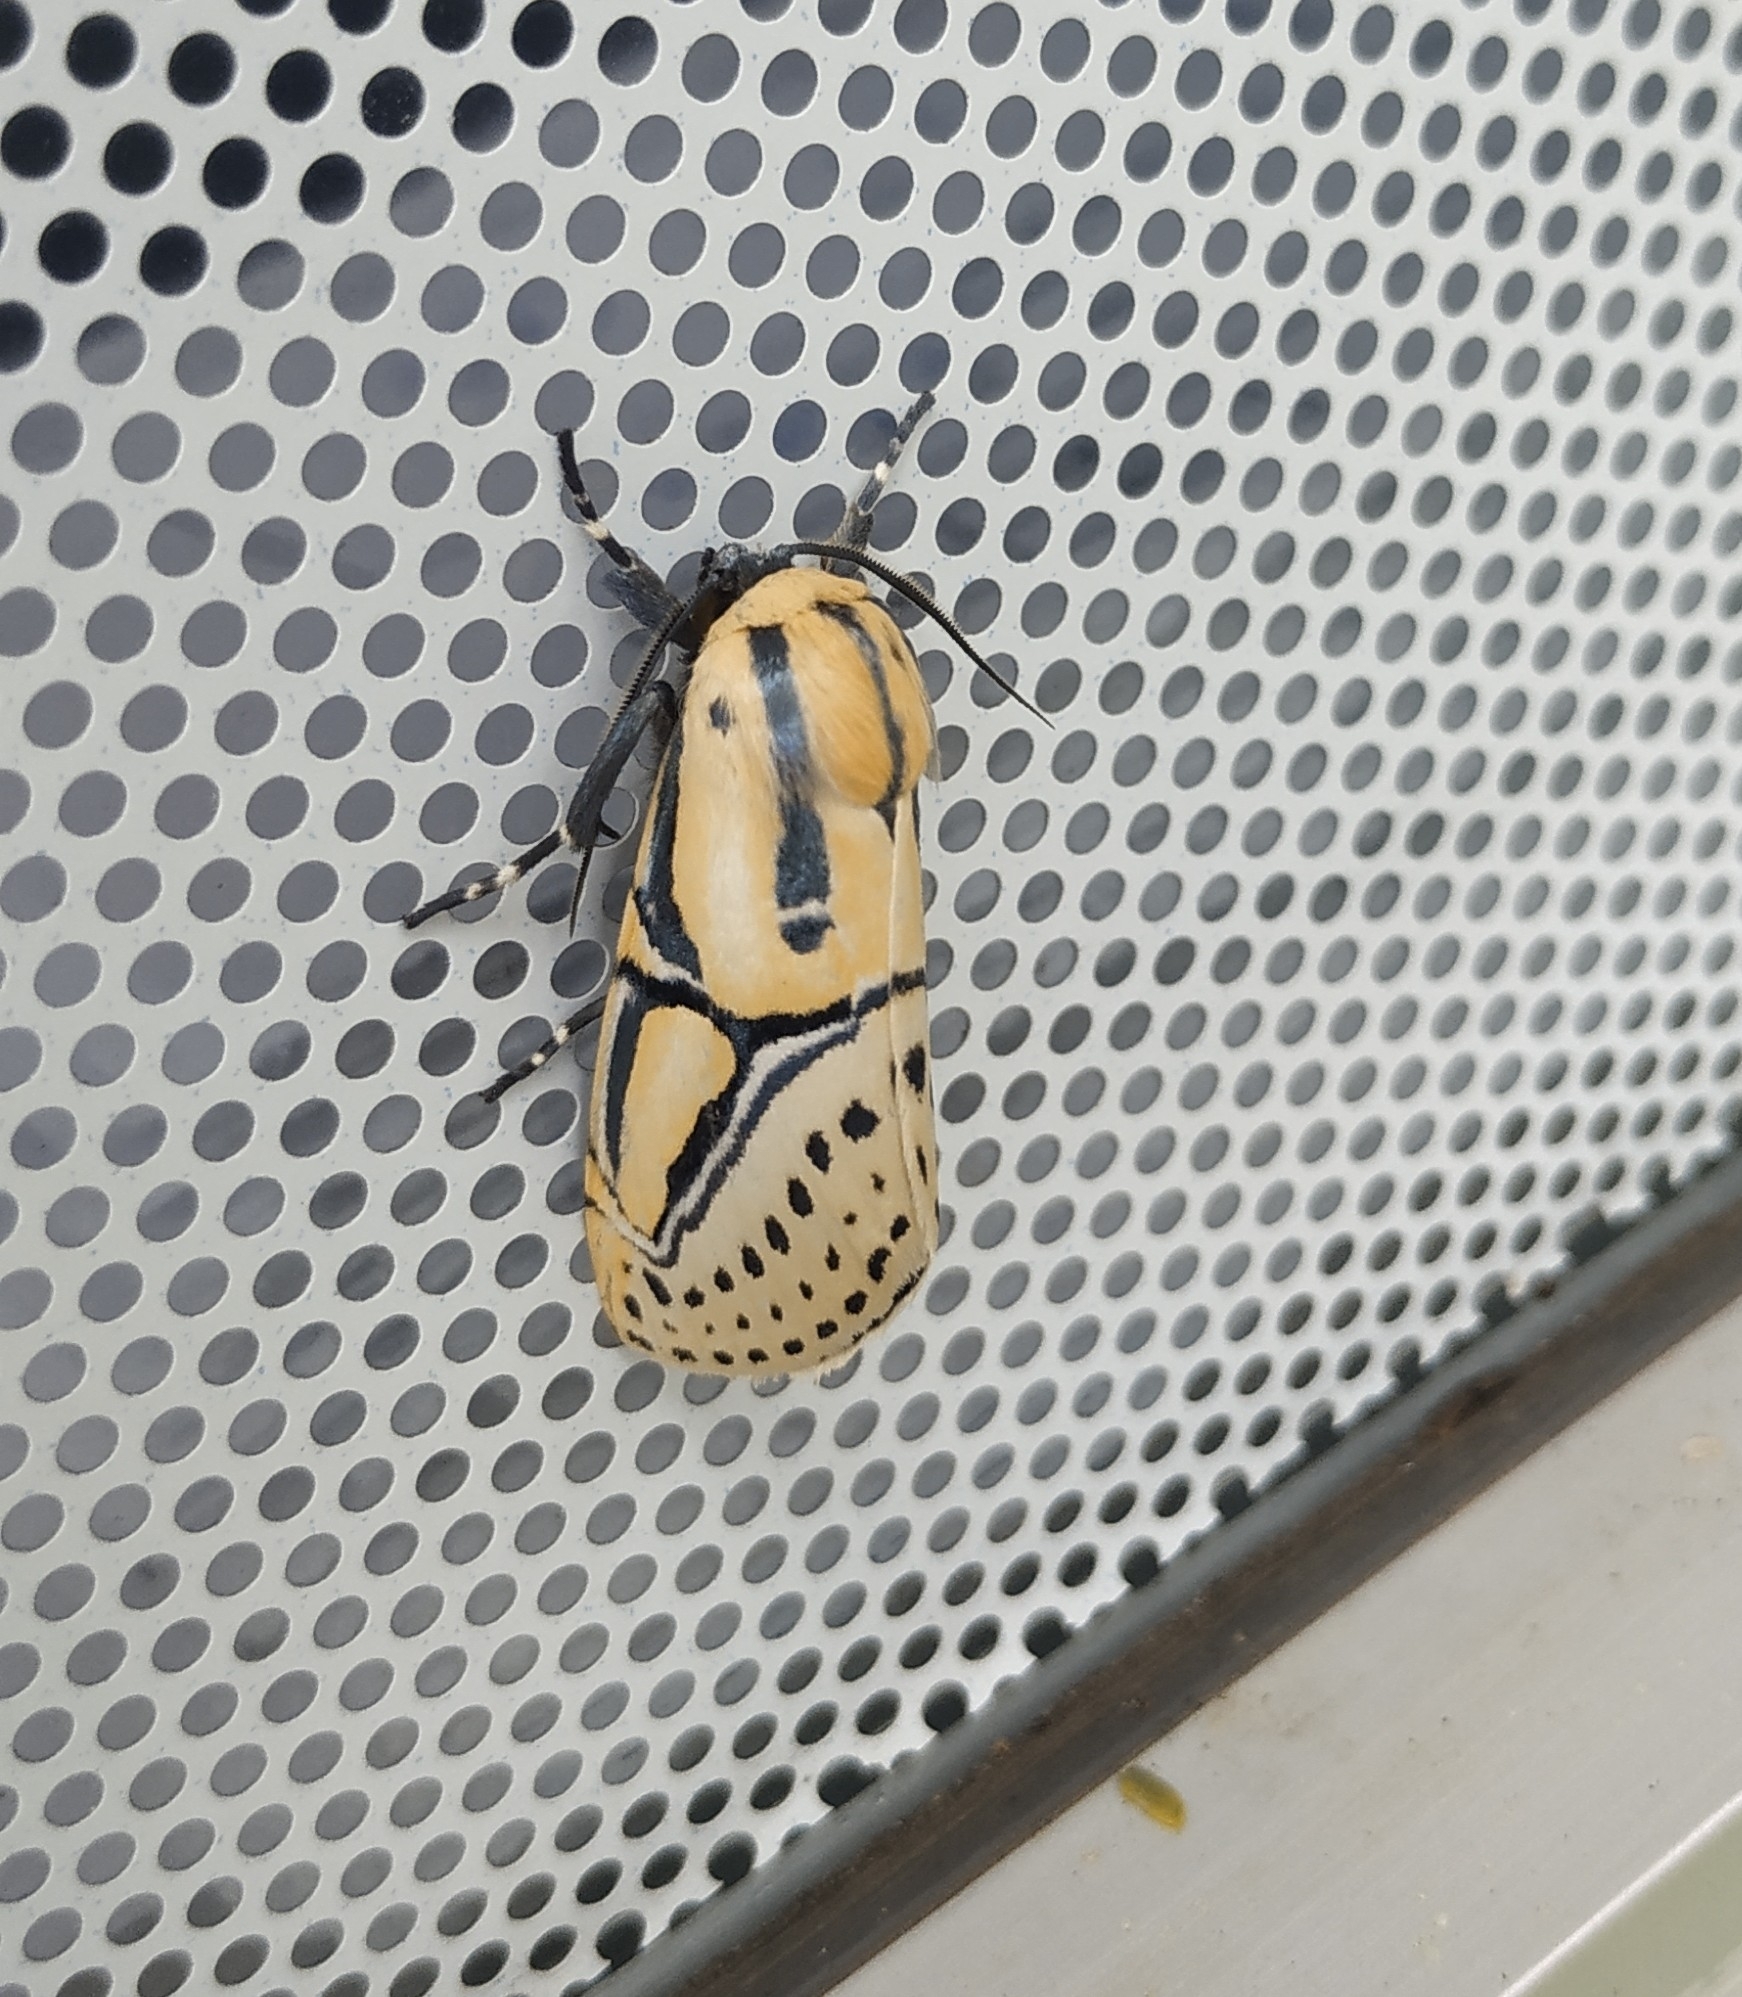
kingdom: Animalia
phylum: Arthropoda
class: Insecta
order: Lepidoptera
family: Erebidae
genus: Diphthera
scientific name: Diphthera festiva
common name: Hieroglyphic moth
